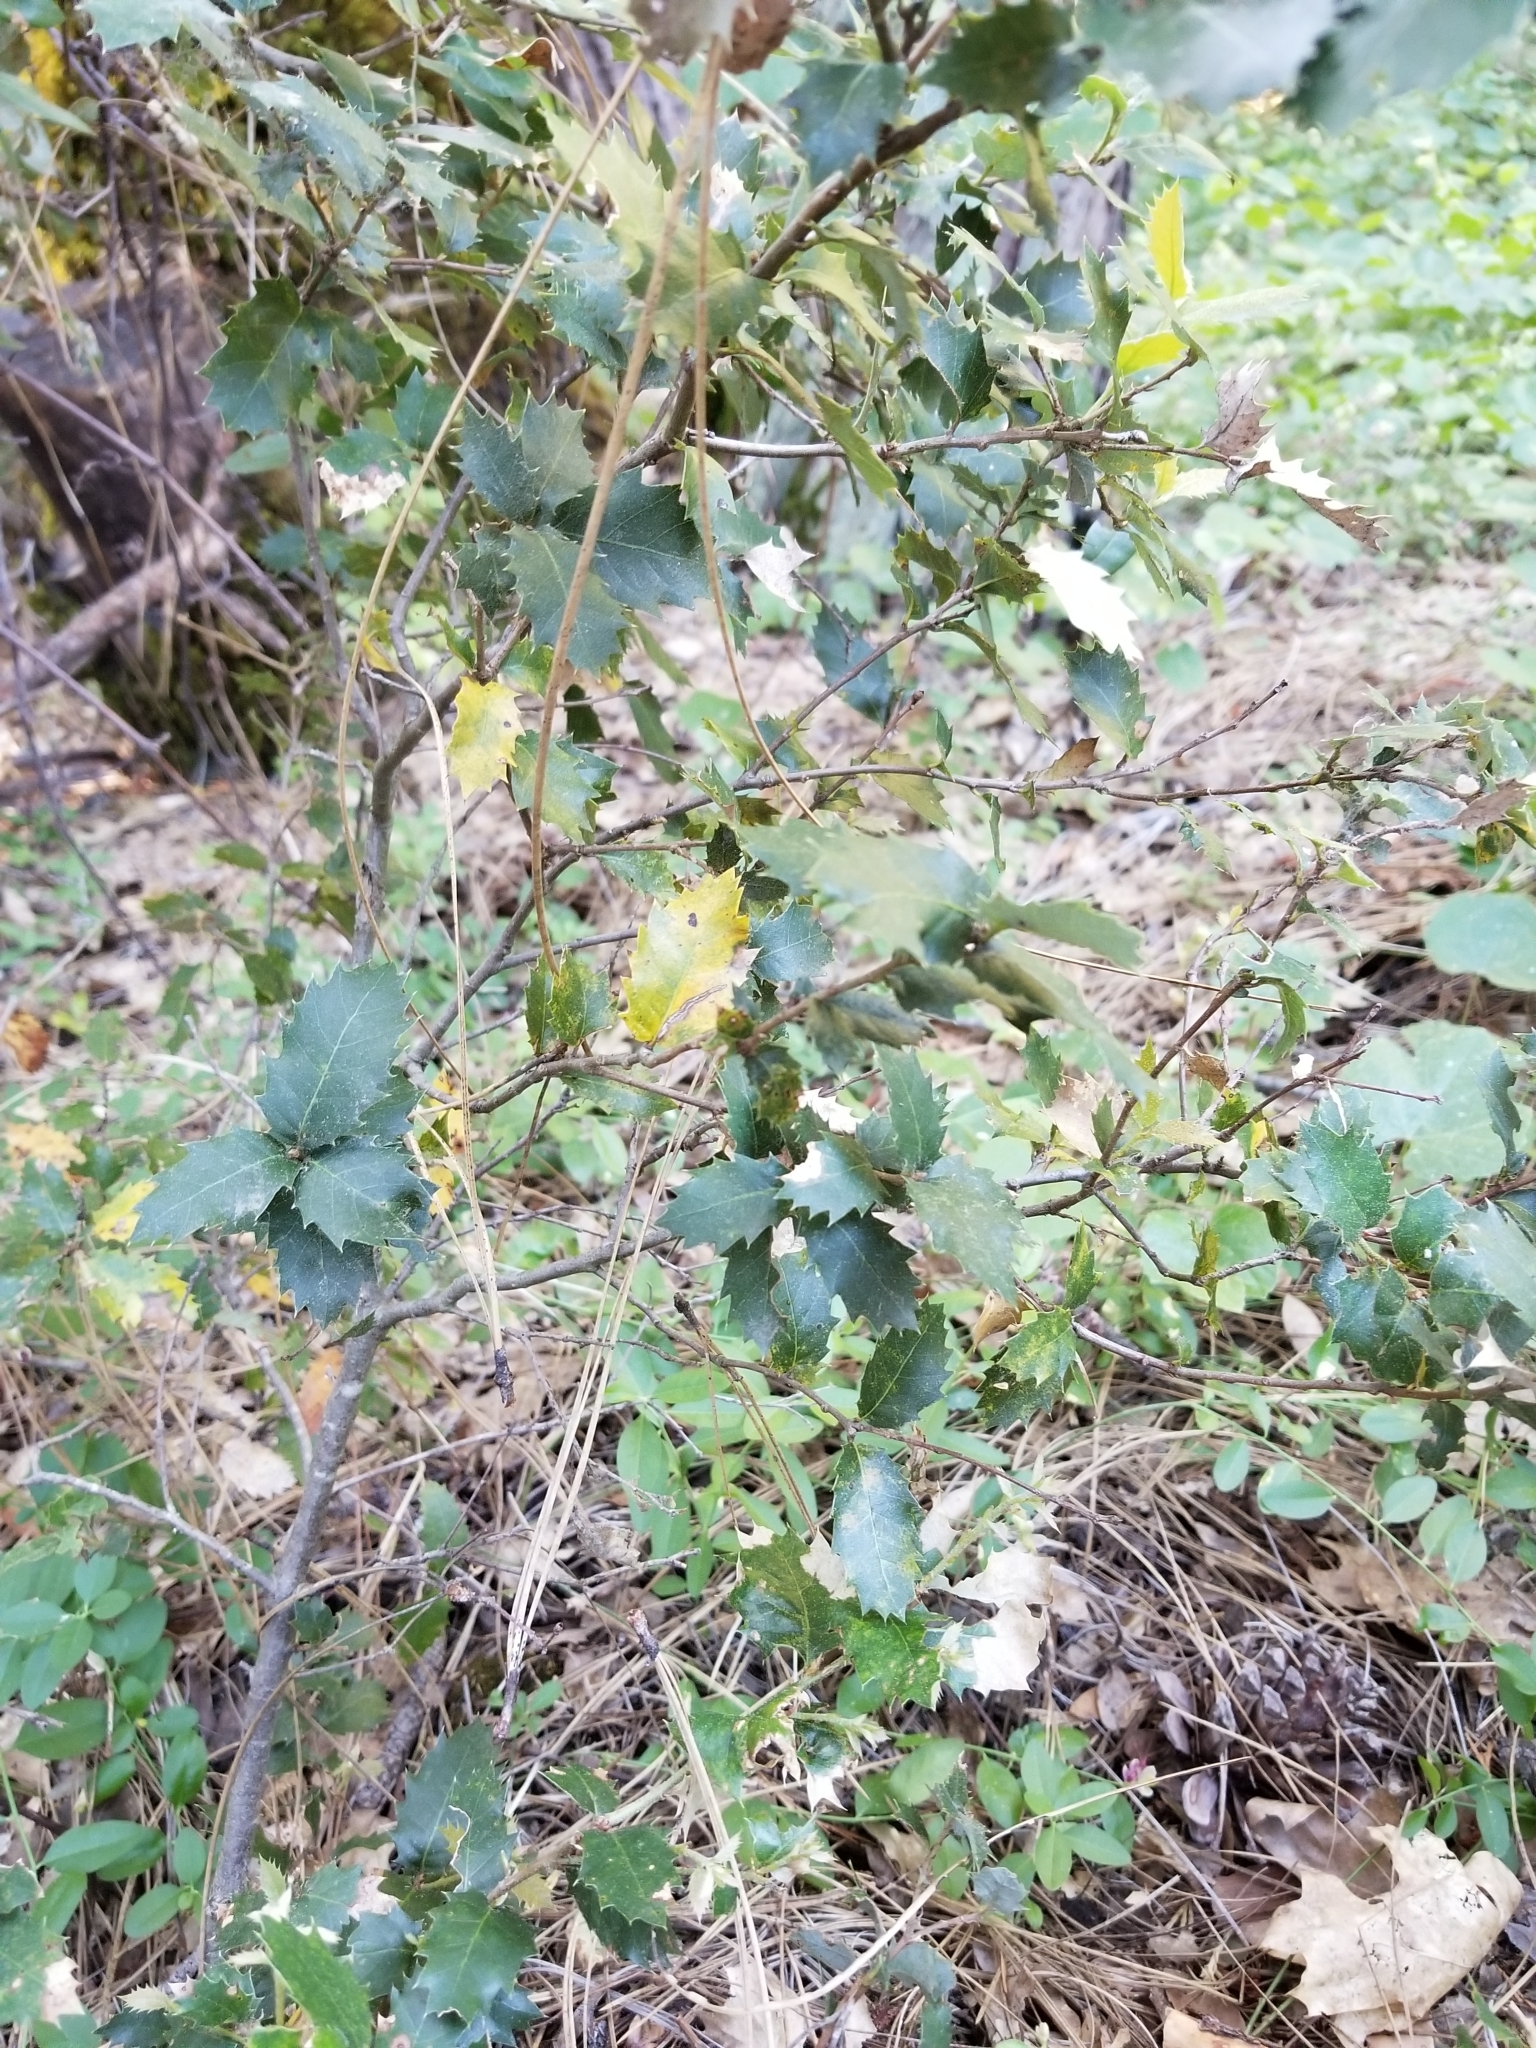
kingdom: Plantae
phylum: Tracheophyta
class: Magnoliopsida
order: Fagales
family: Fagaceae
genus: Quercus
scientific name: Quercus chrysolepis
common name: Canyon live oak
